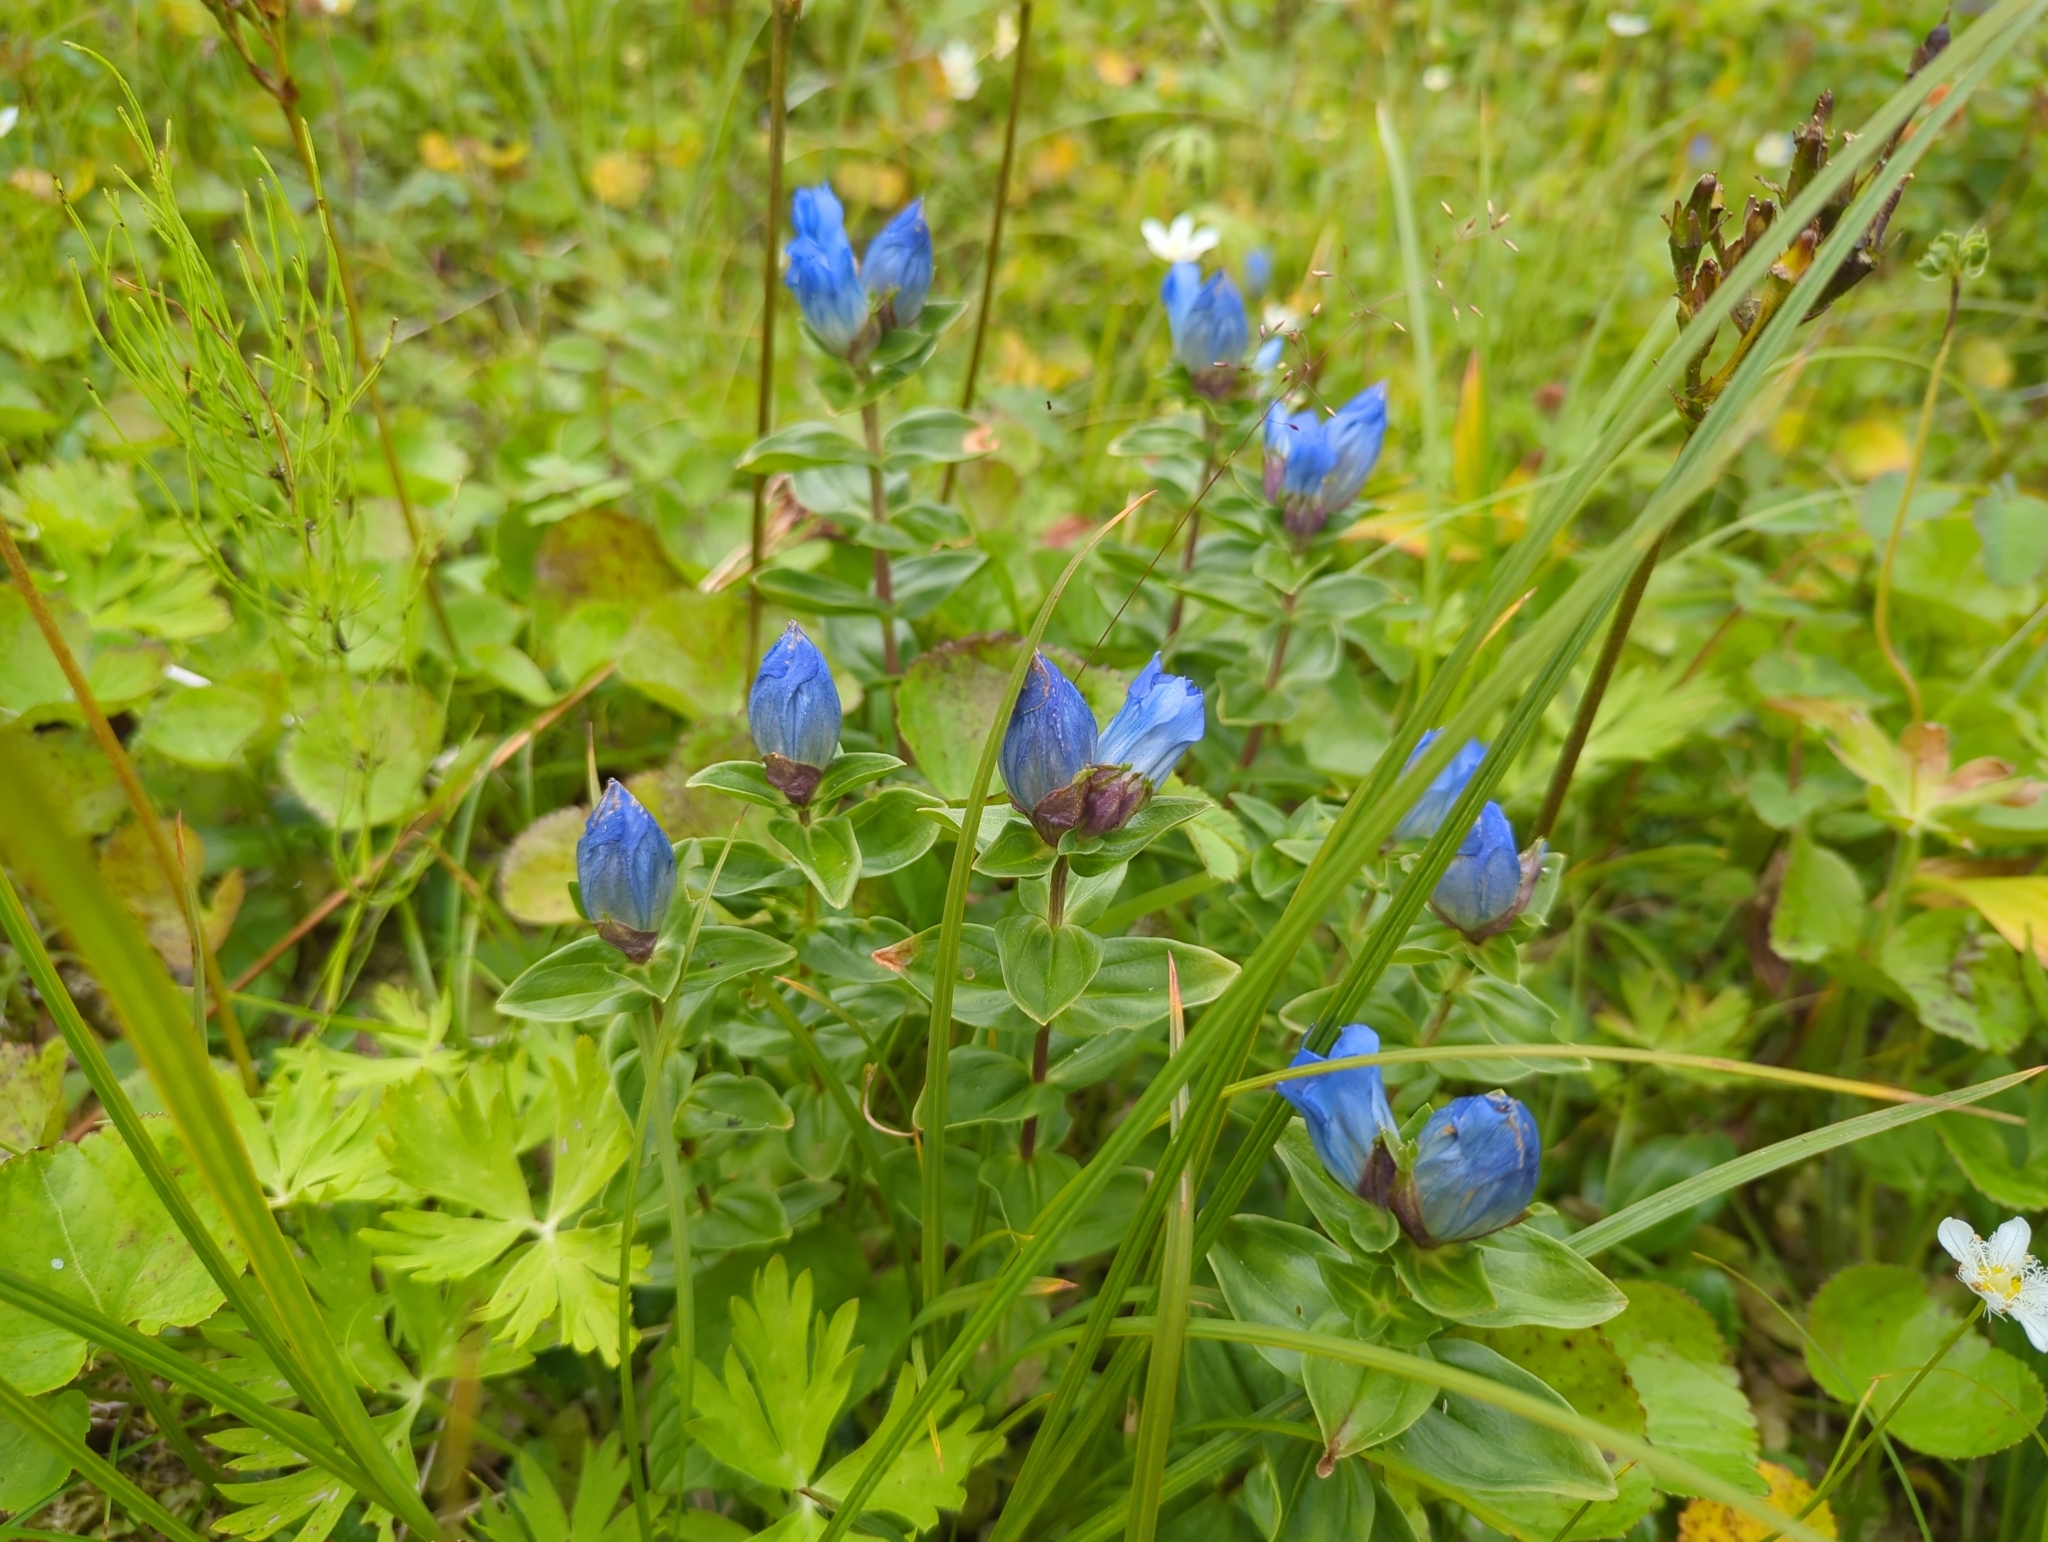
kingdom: Plantae
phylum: Tracheophyta
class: Magnoliopsida
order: Gentianales
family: Gentianaceae
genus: Gentiana
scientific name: Gentiana platypetala
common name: Broad-petalled gentian
